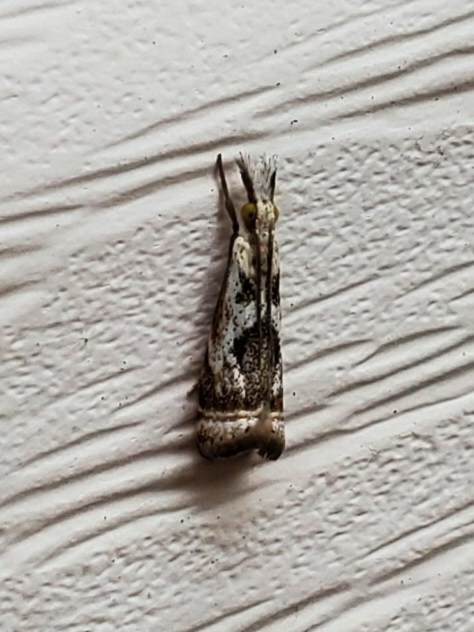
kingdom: Animalia
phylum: Arthropoda
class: Insecta
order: Lepidoptera
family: Crambidae
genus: Microcrambus
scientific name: Microcrambus elegans
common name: Elegant grass-veneer
